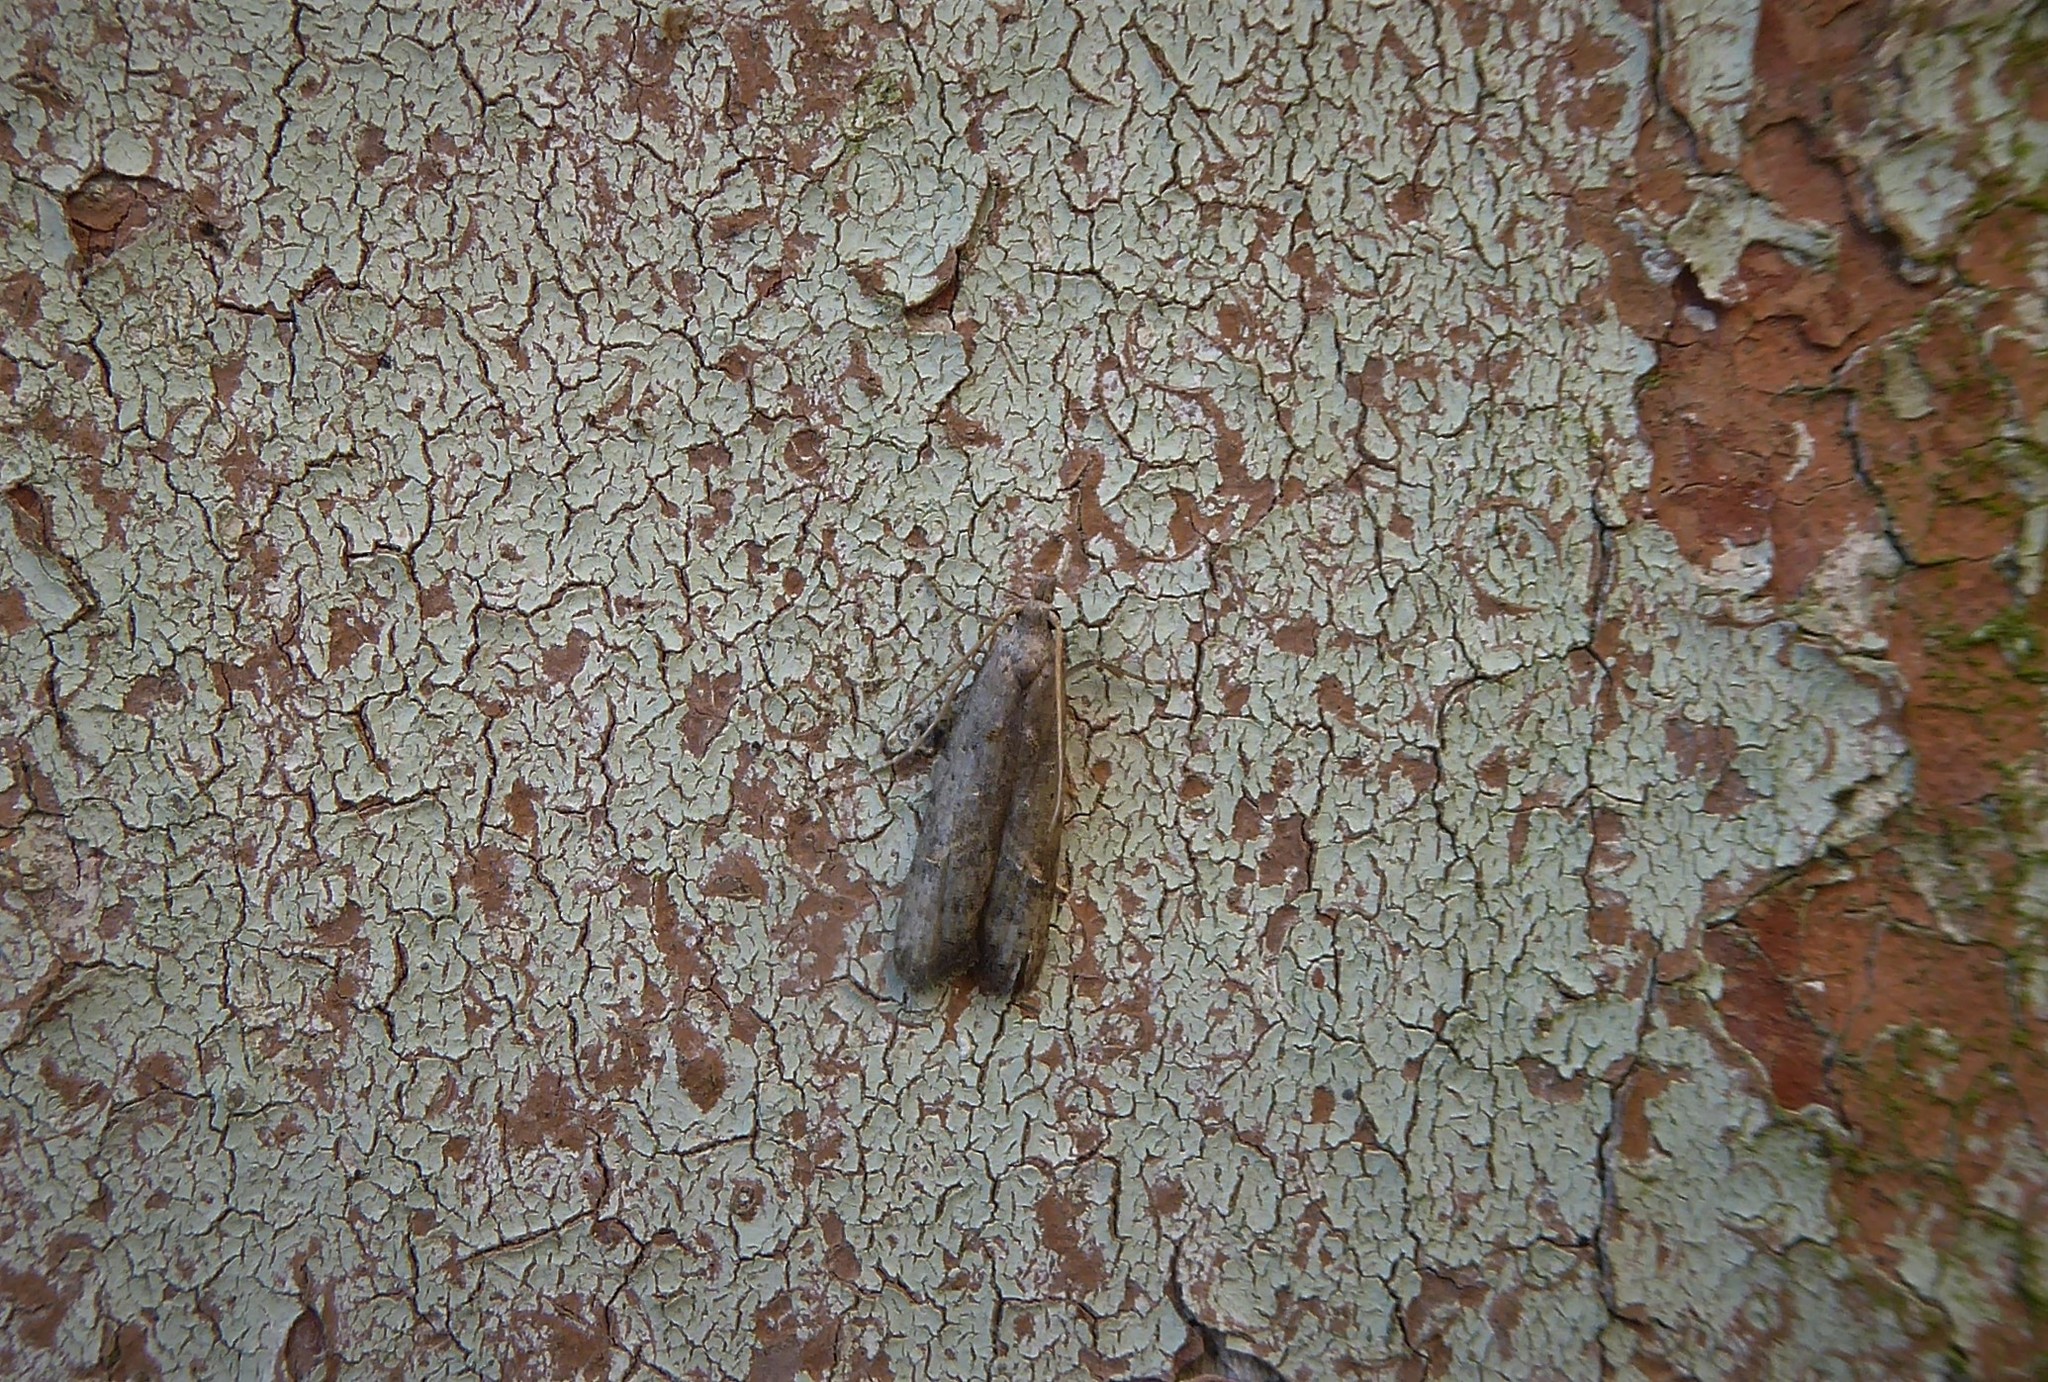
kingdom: Animalia
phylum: Arthropoda
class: Insecta
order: Lepidoptera
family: Carposinidae
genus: Carposina
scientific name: Carposina rubophaga
